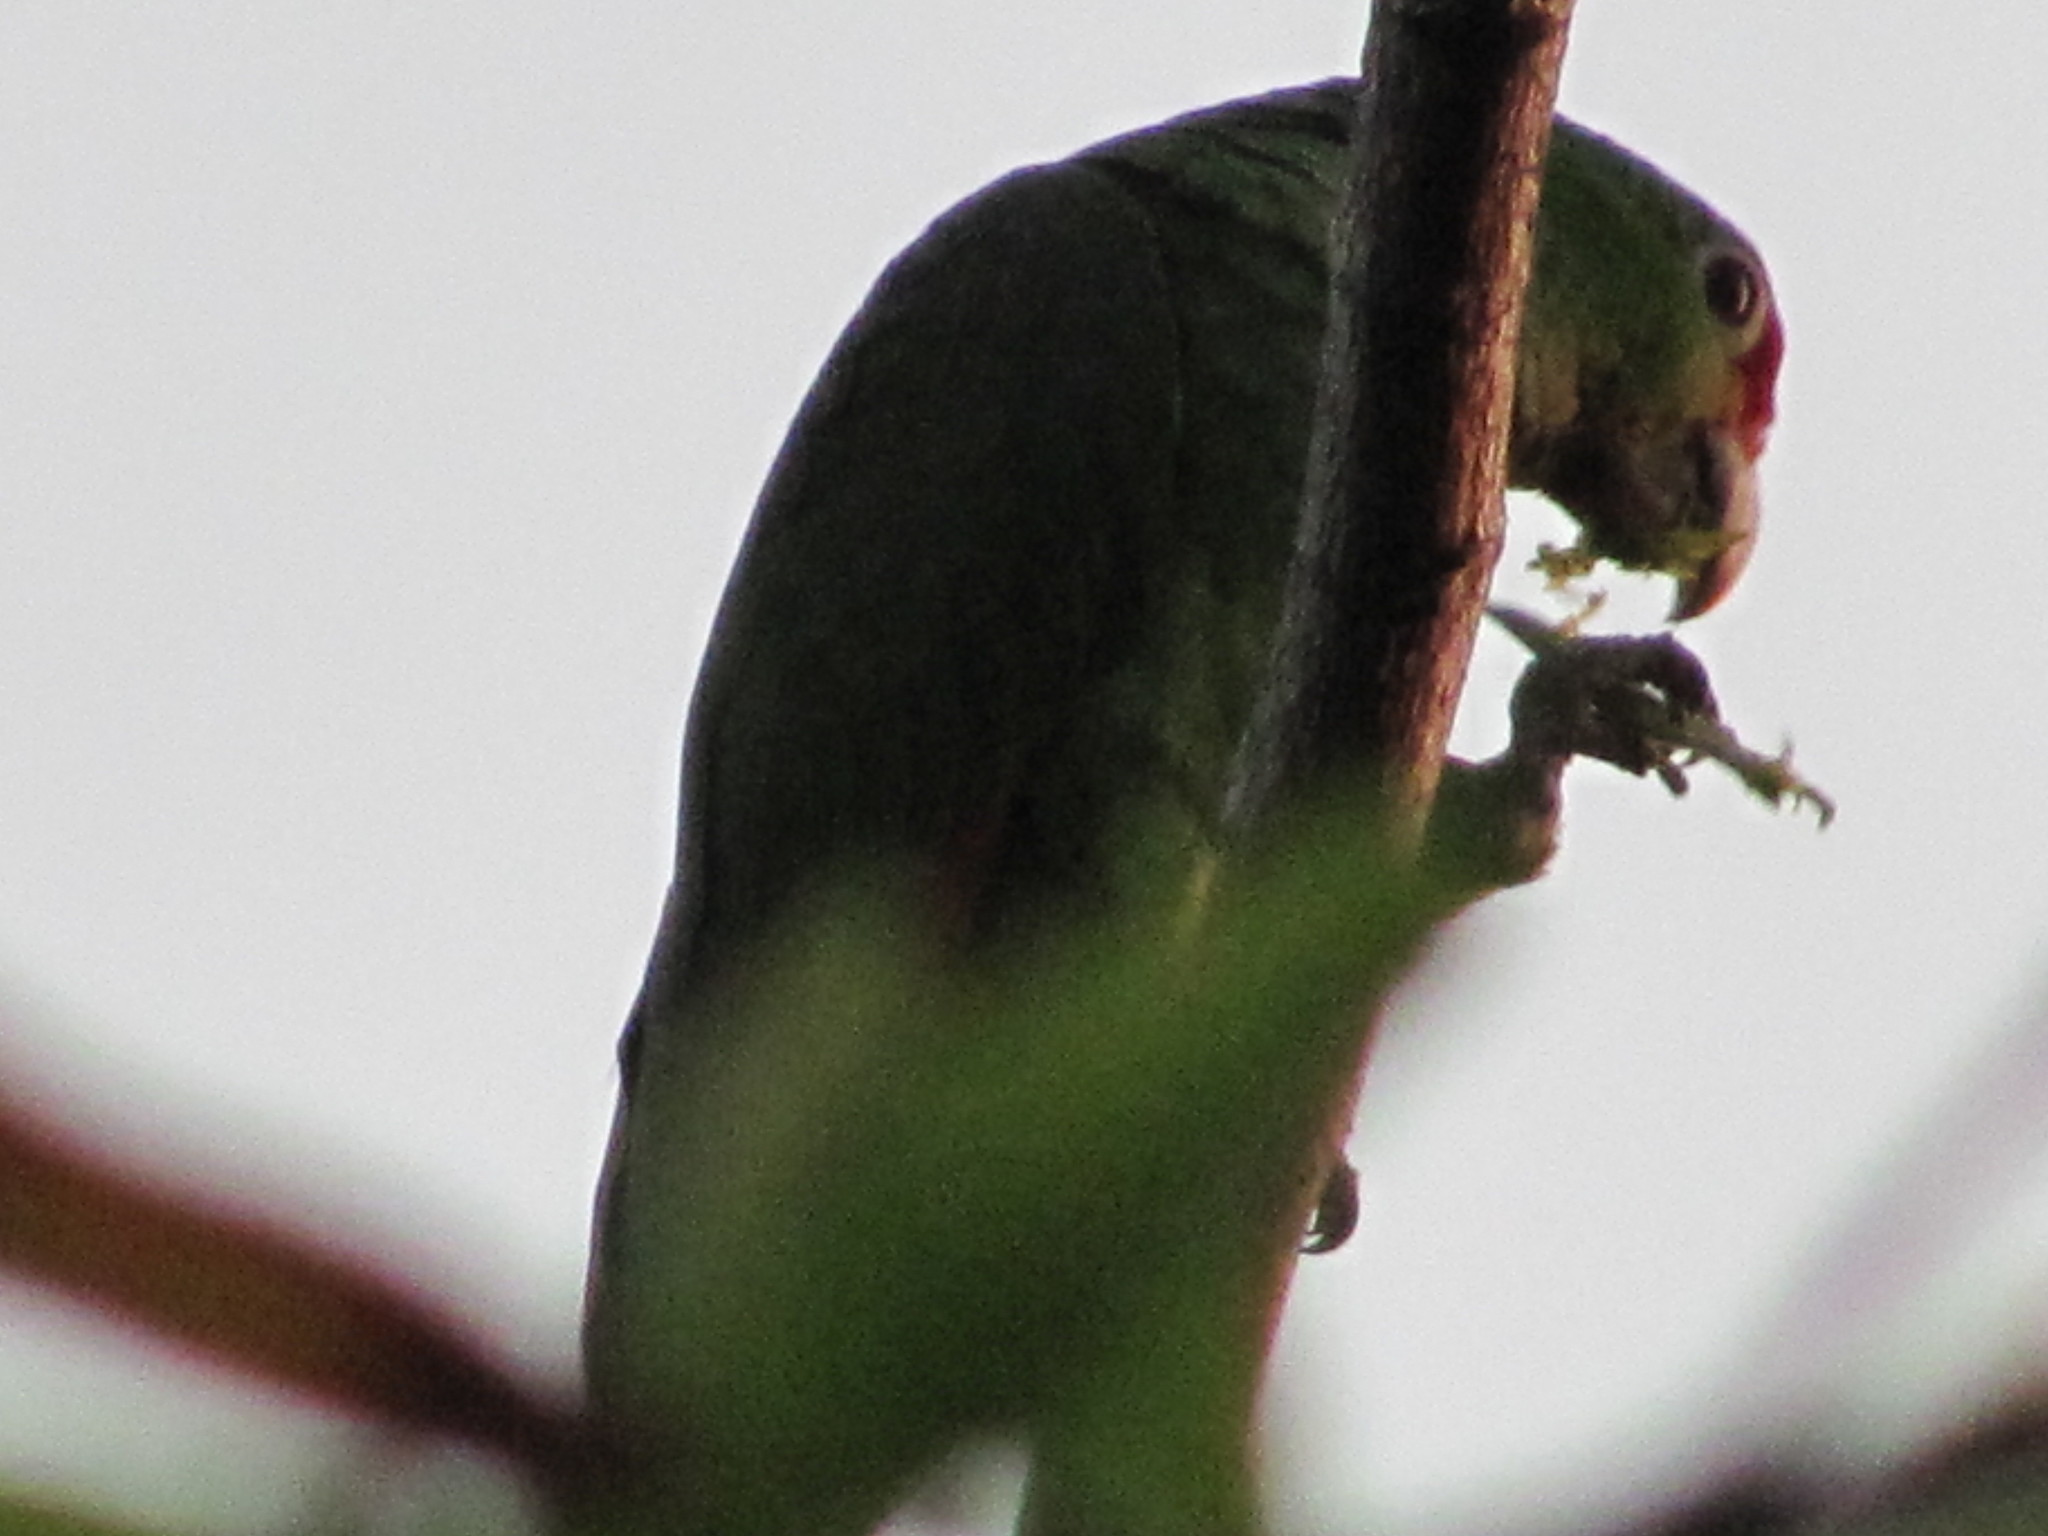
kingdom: Animalia
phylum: Chordata
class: Aves
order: Psittaciformes
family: Psittacidae
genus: Amazona
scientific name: Amazona autumnalis
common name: Red-lored amazon
